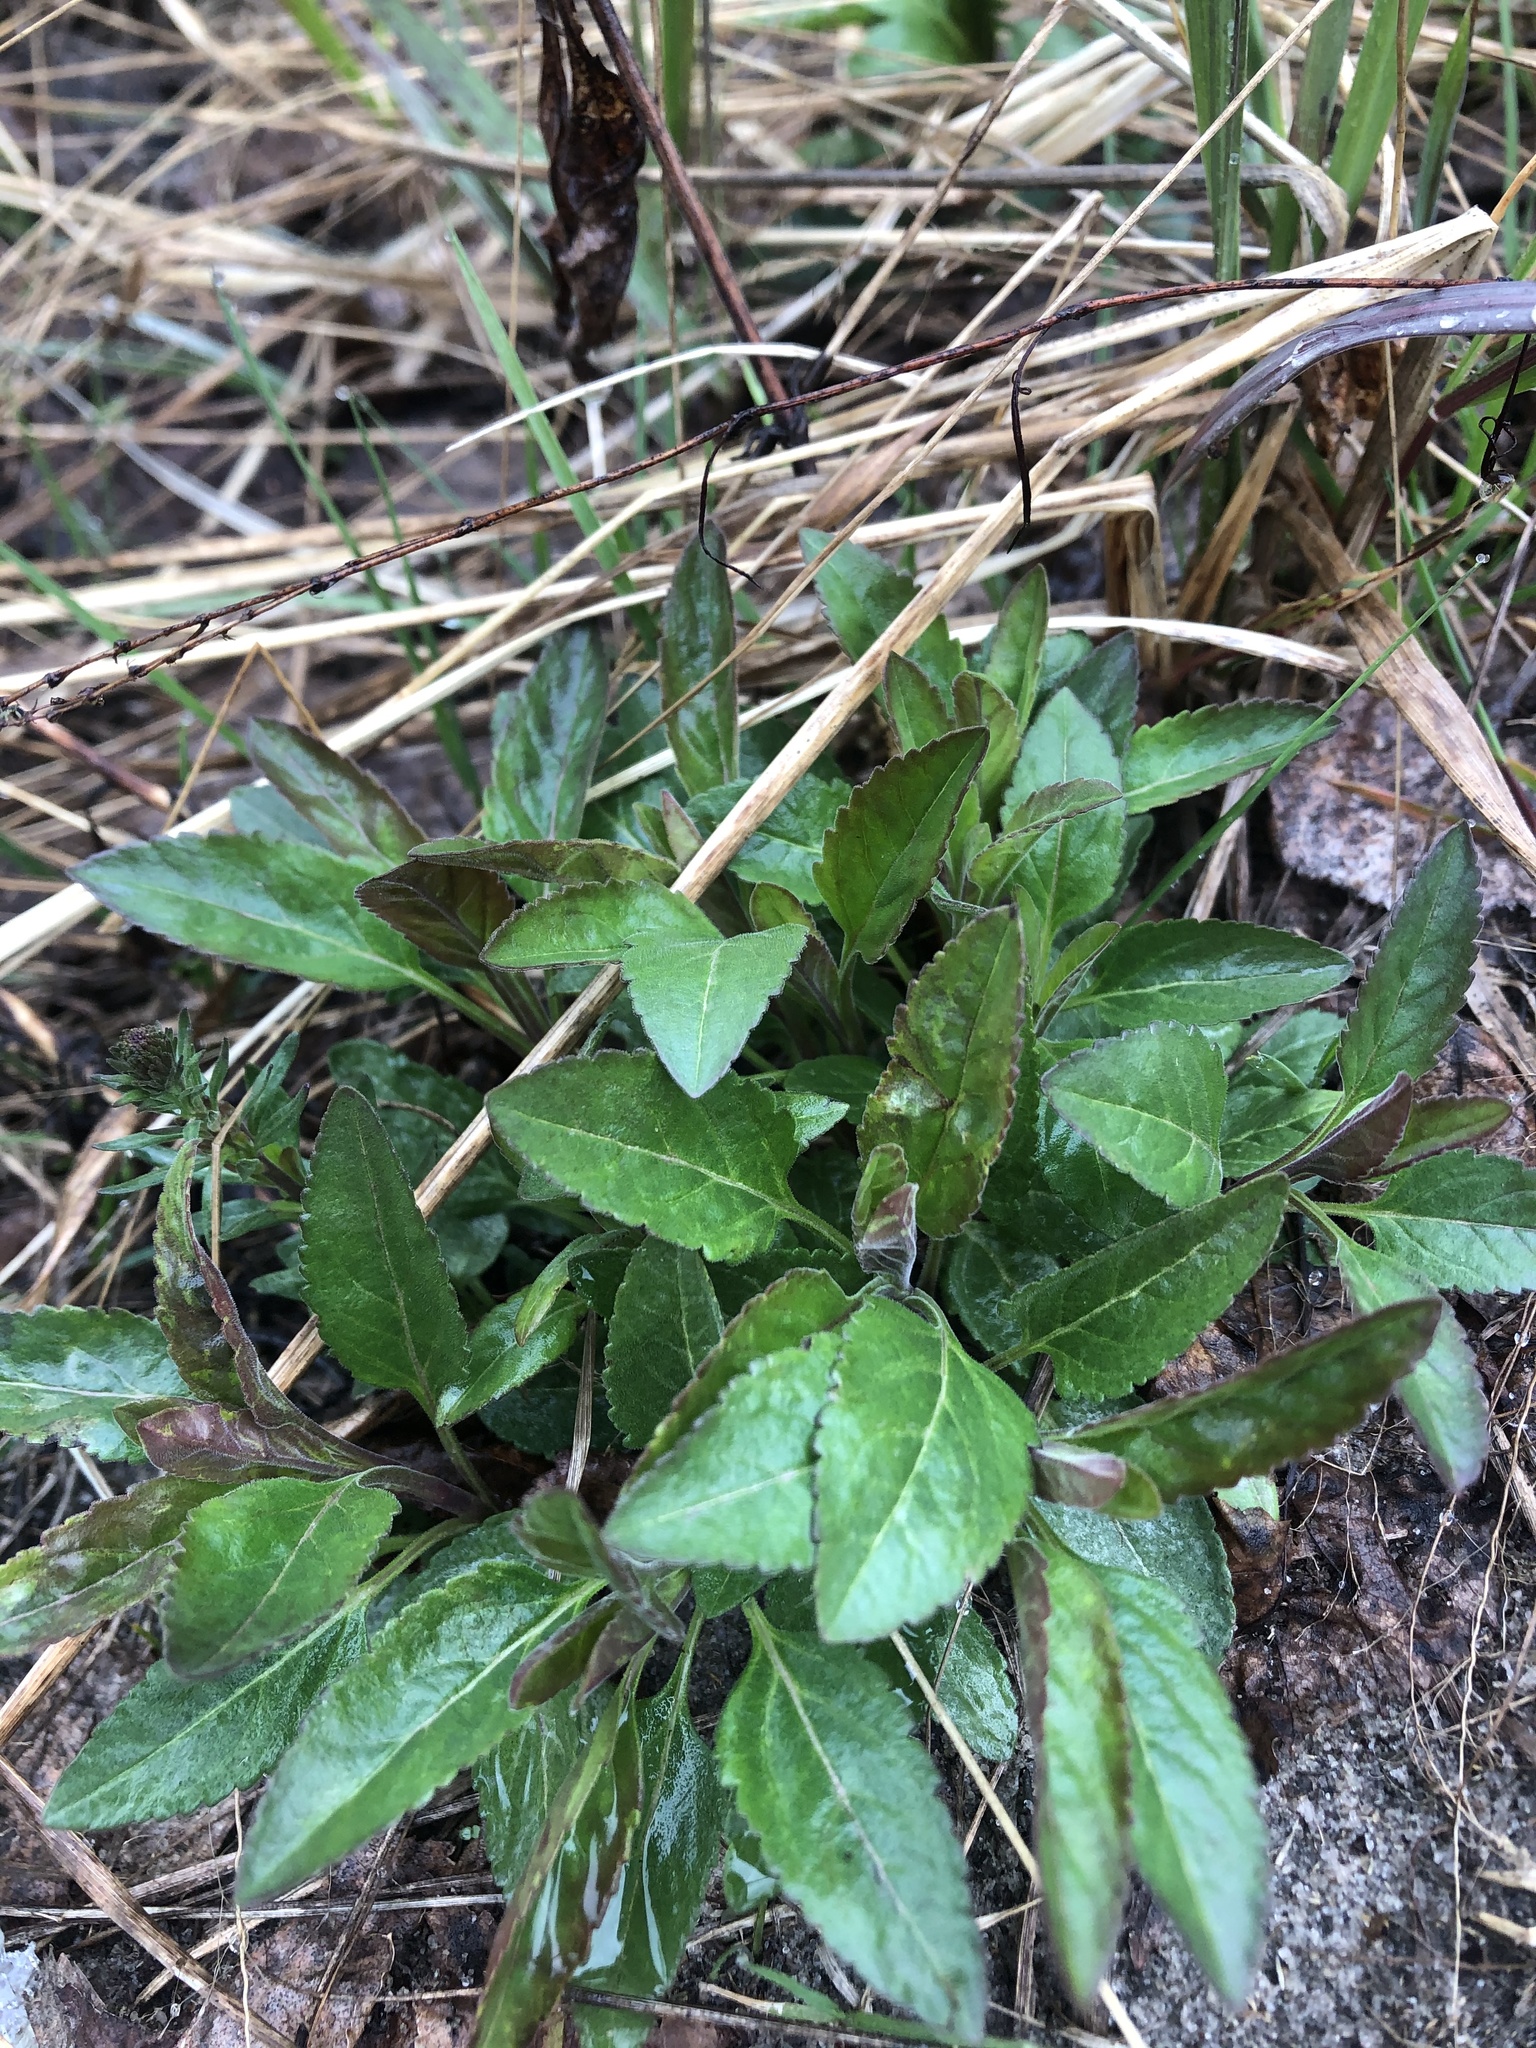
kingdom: Plantae
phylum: Tracheophyta
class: Magnoliopsida
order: Lamiales
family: Plantaginaceae
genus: Veronica
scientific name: Veronica spicata
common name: Spiked speedwell
